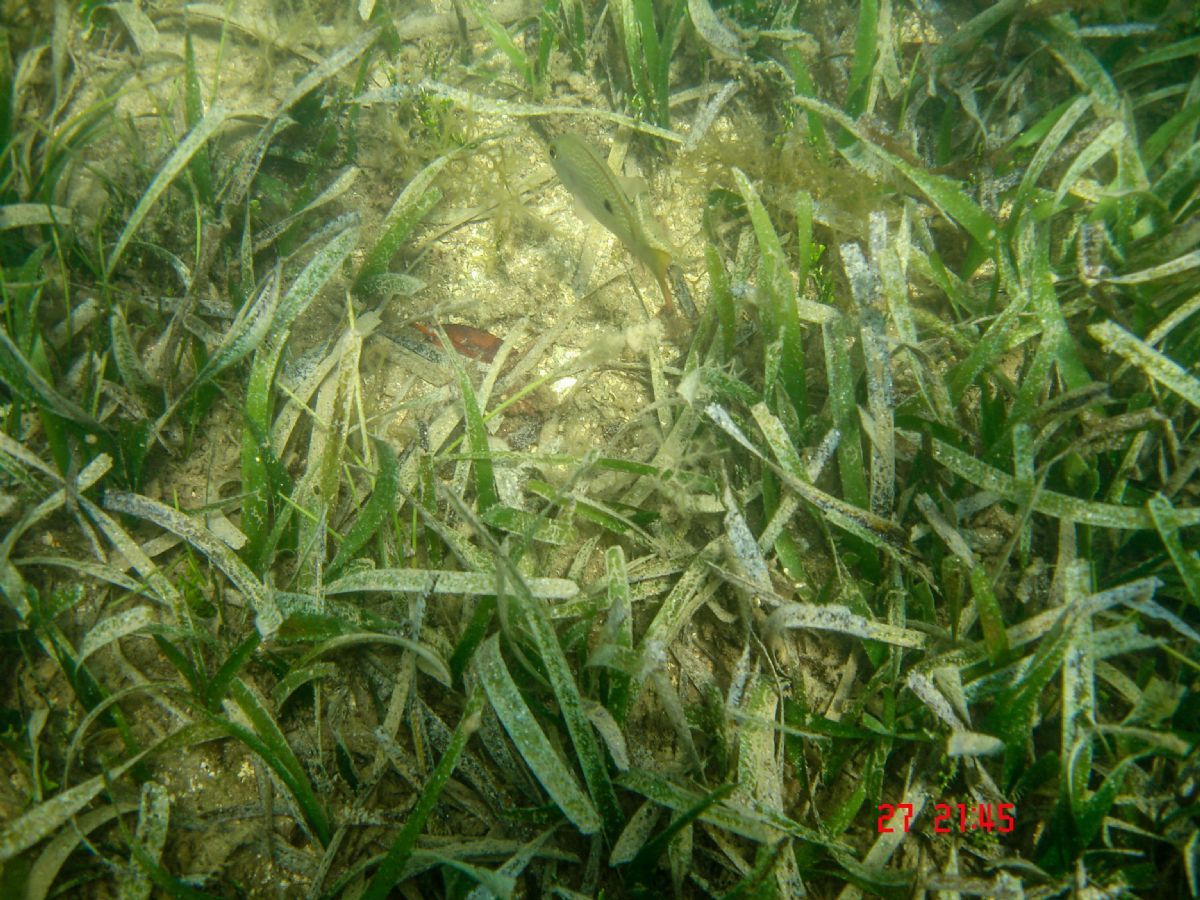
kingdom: Plantae
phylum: Tracheophyta
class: Liliopsida
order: Alismatales
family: Hydrocharitaceae
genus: Thalassia
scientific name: Thalassia testudinum
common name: Species code: tt
